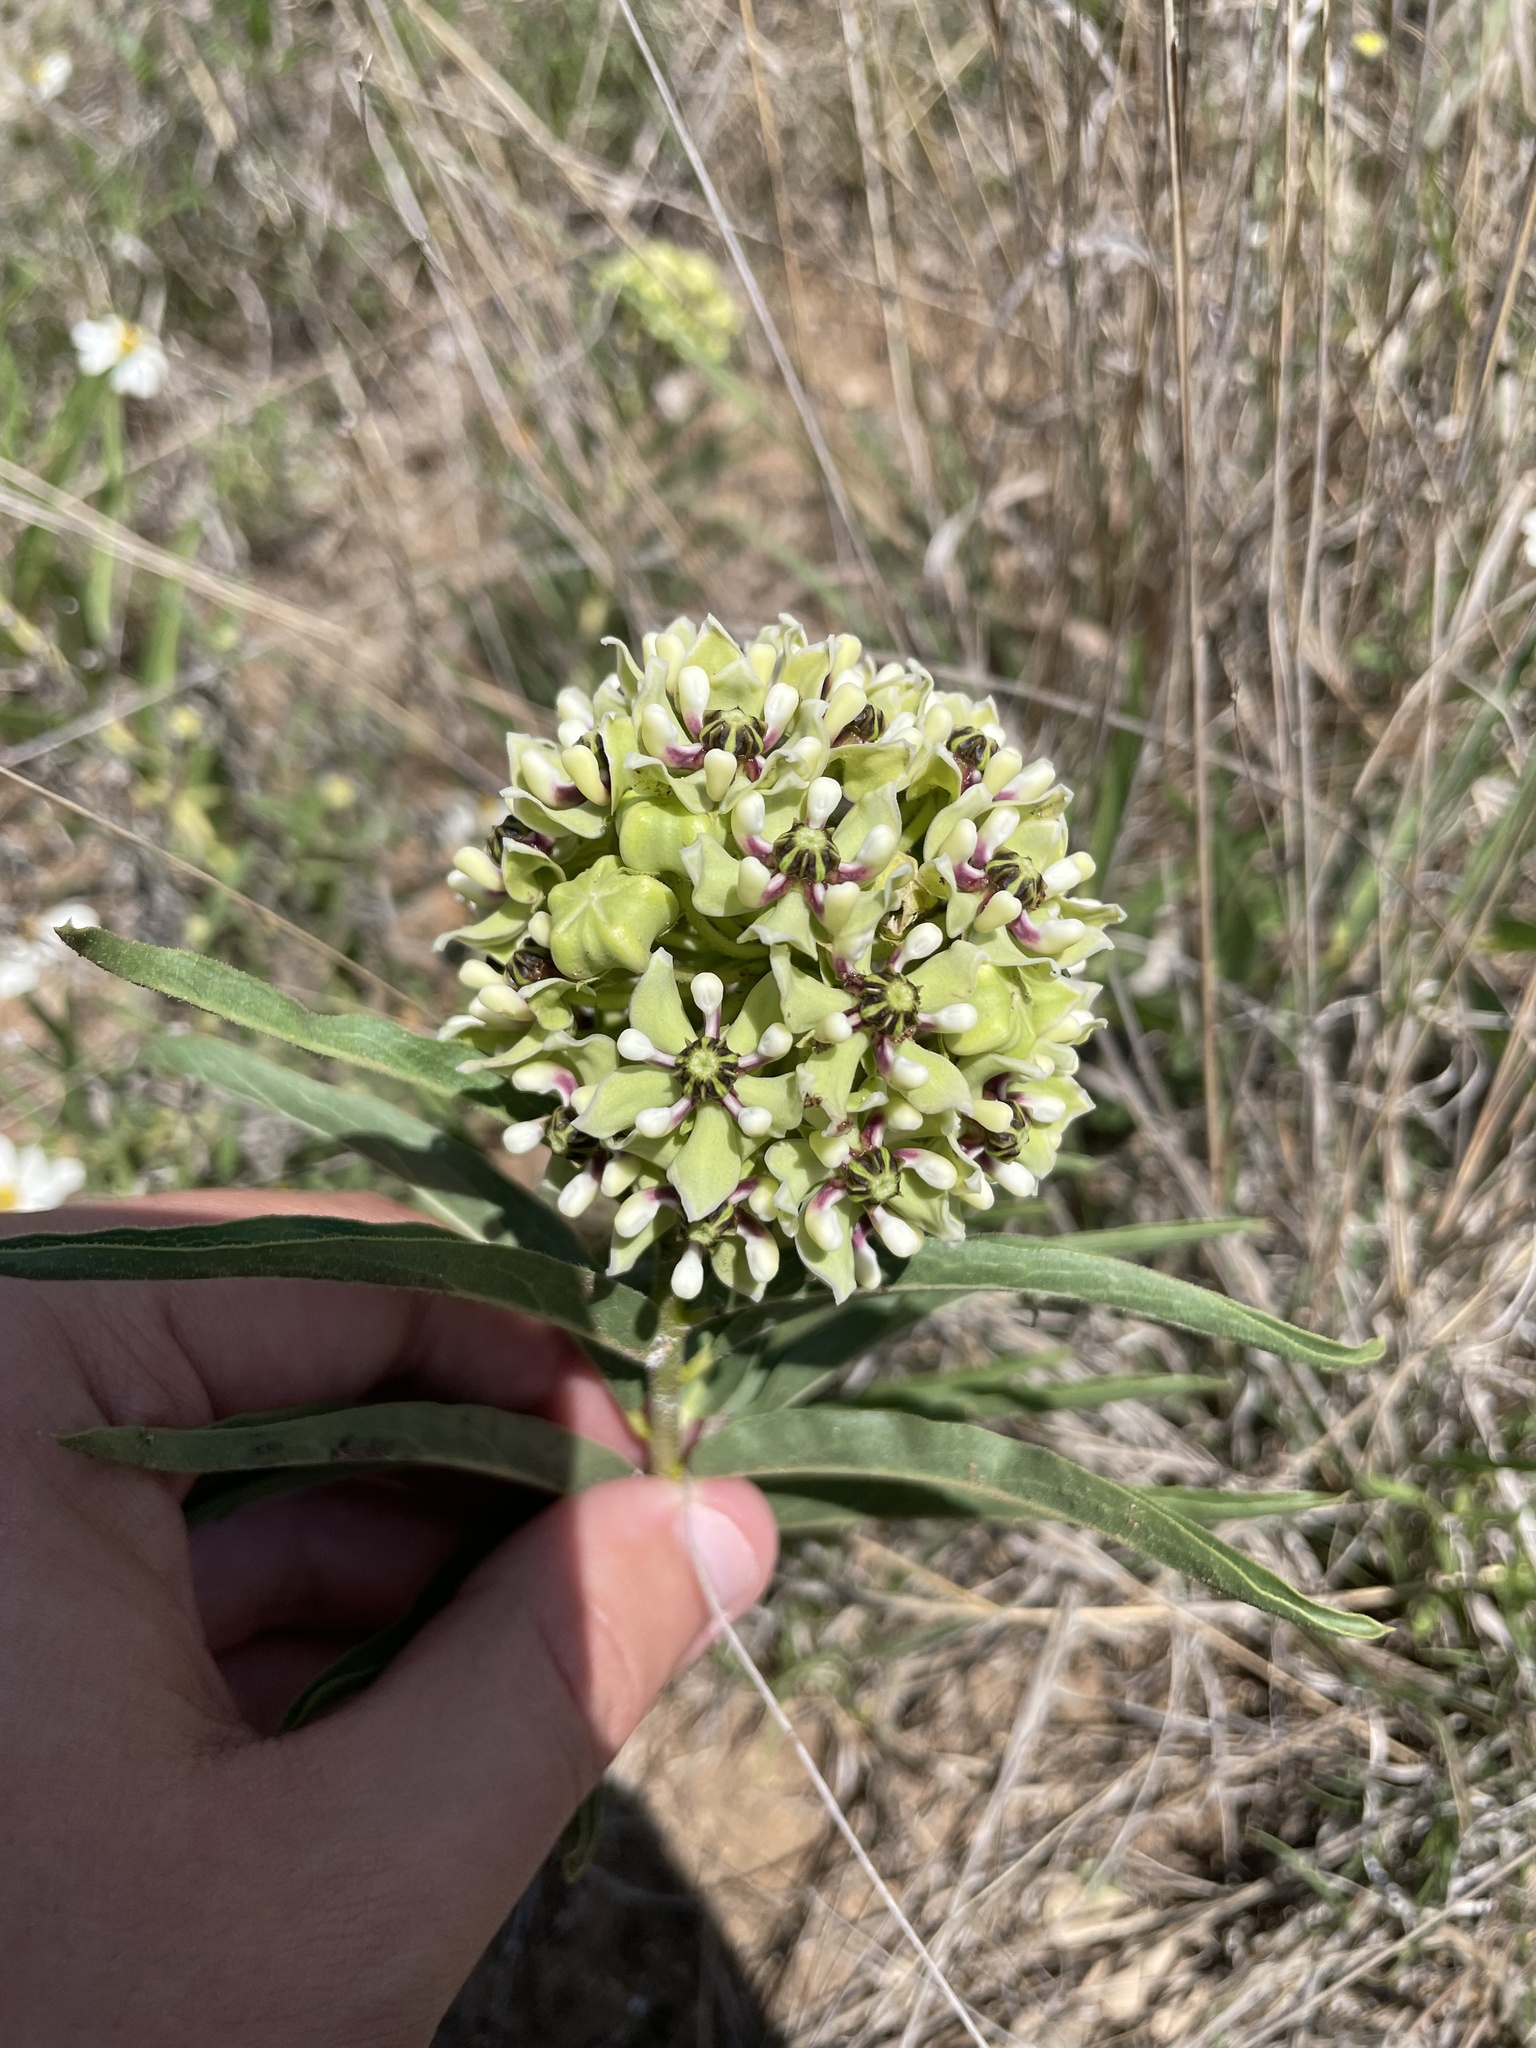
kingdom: Plantae
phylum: Tracheophyta
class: Magnoliopsida
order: Gentianales
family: Apocynaceae
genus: Asclepias
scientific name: Asclepias asperula
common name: Antelope horns
